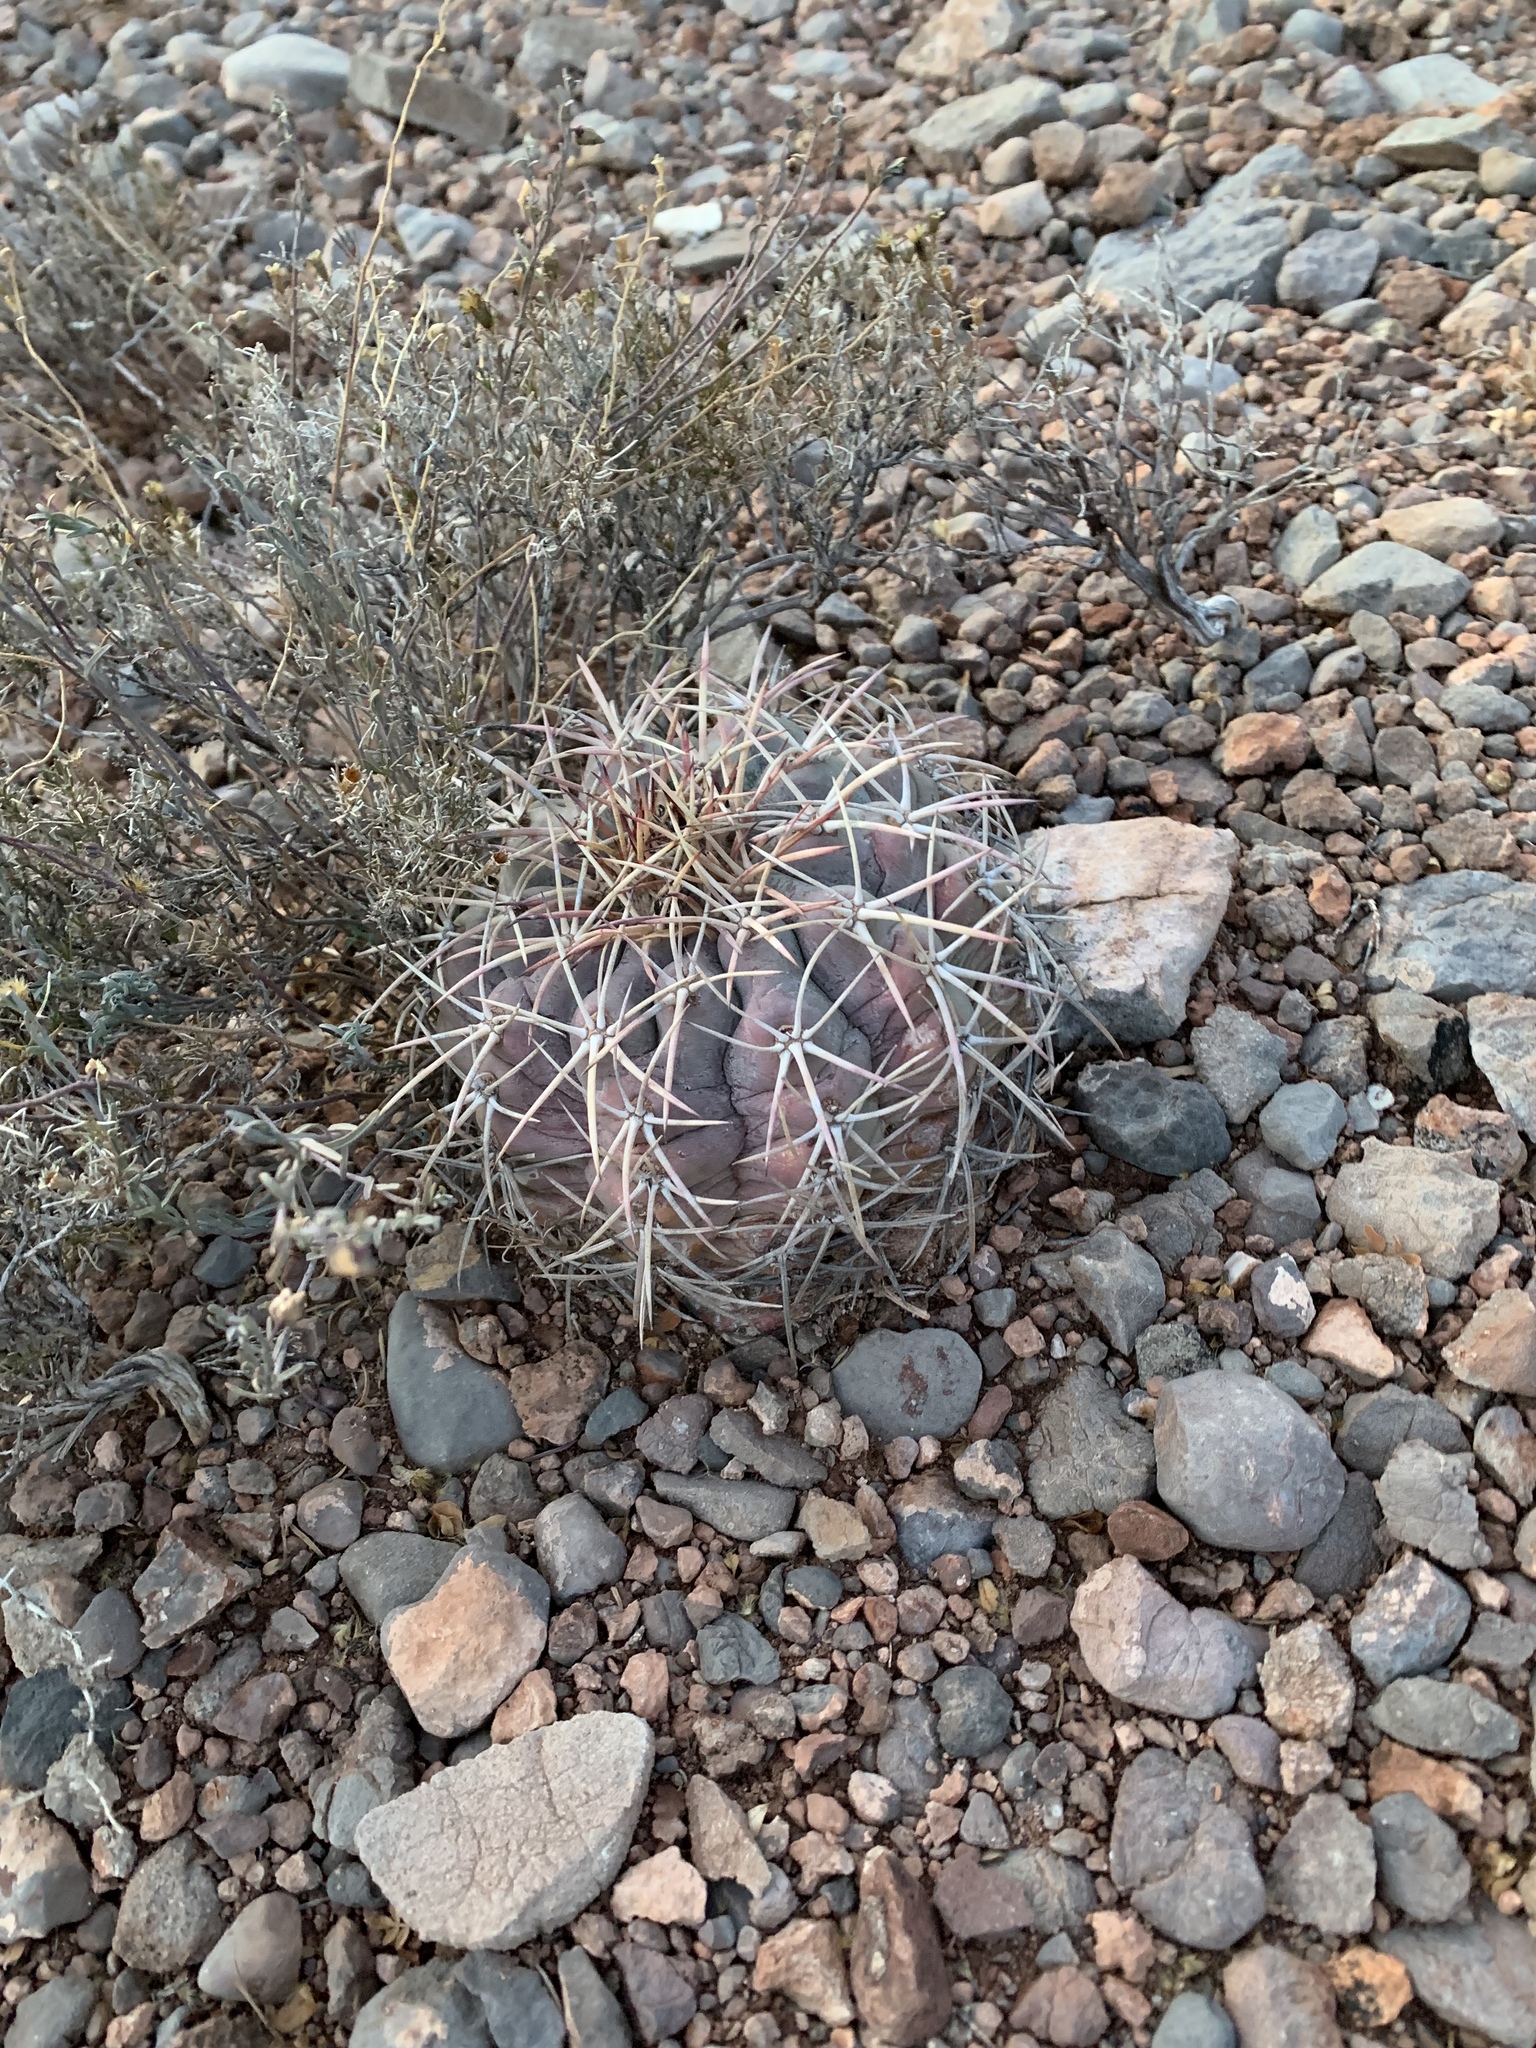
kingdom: Plantae
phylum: Tracheophyta
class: Magnoliopsida
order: Caryophyllales
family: Cactaceae
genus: Echinocactus
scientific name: Echinocactus horizonthalonius
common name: Devilshead
